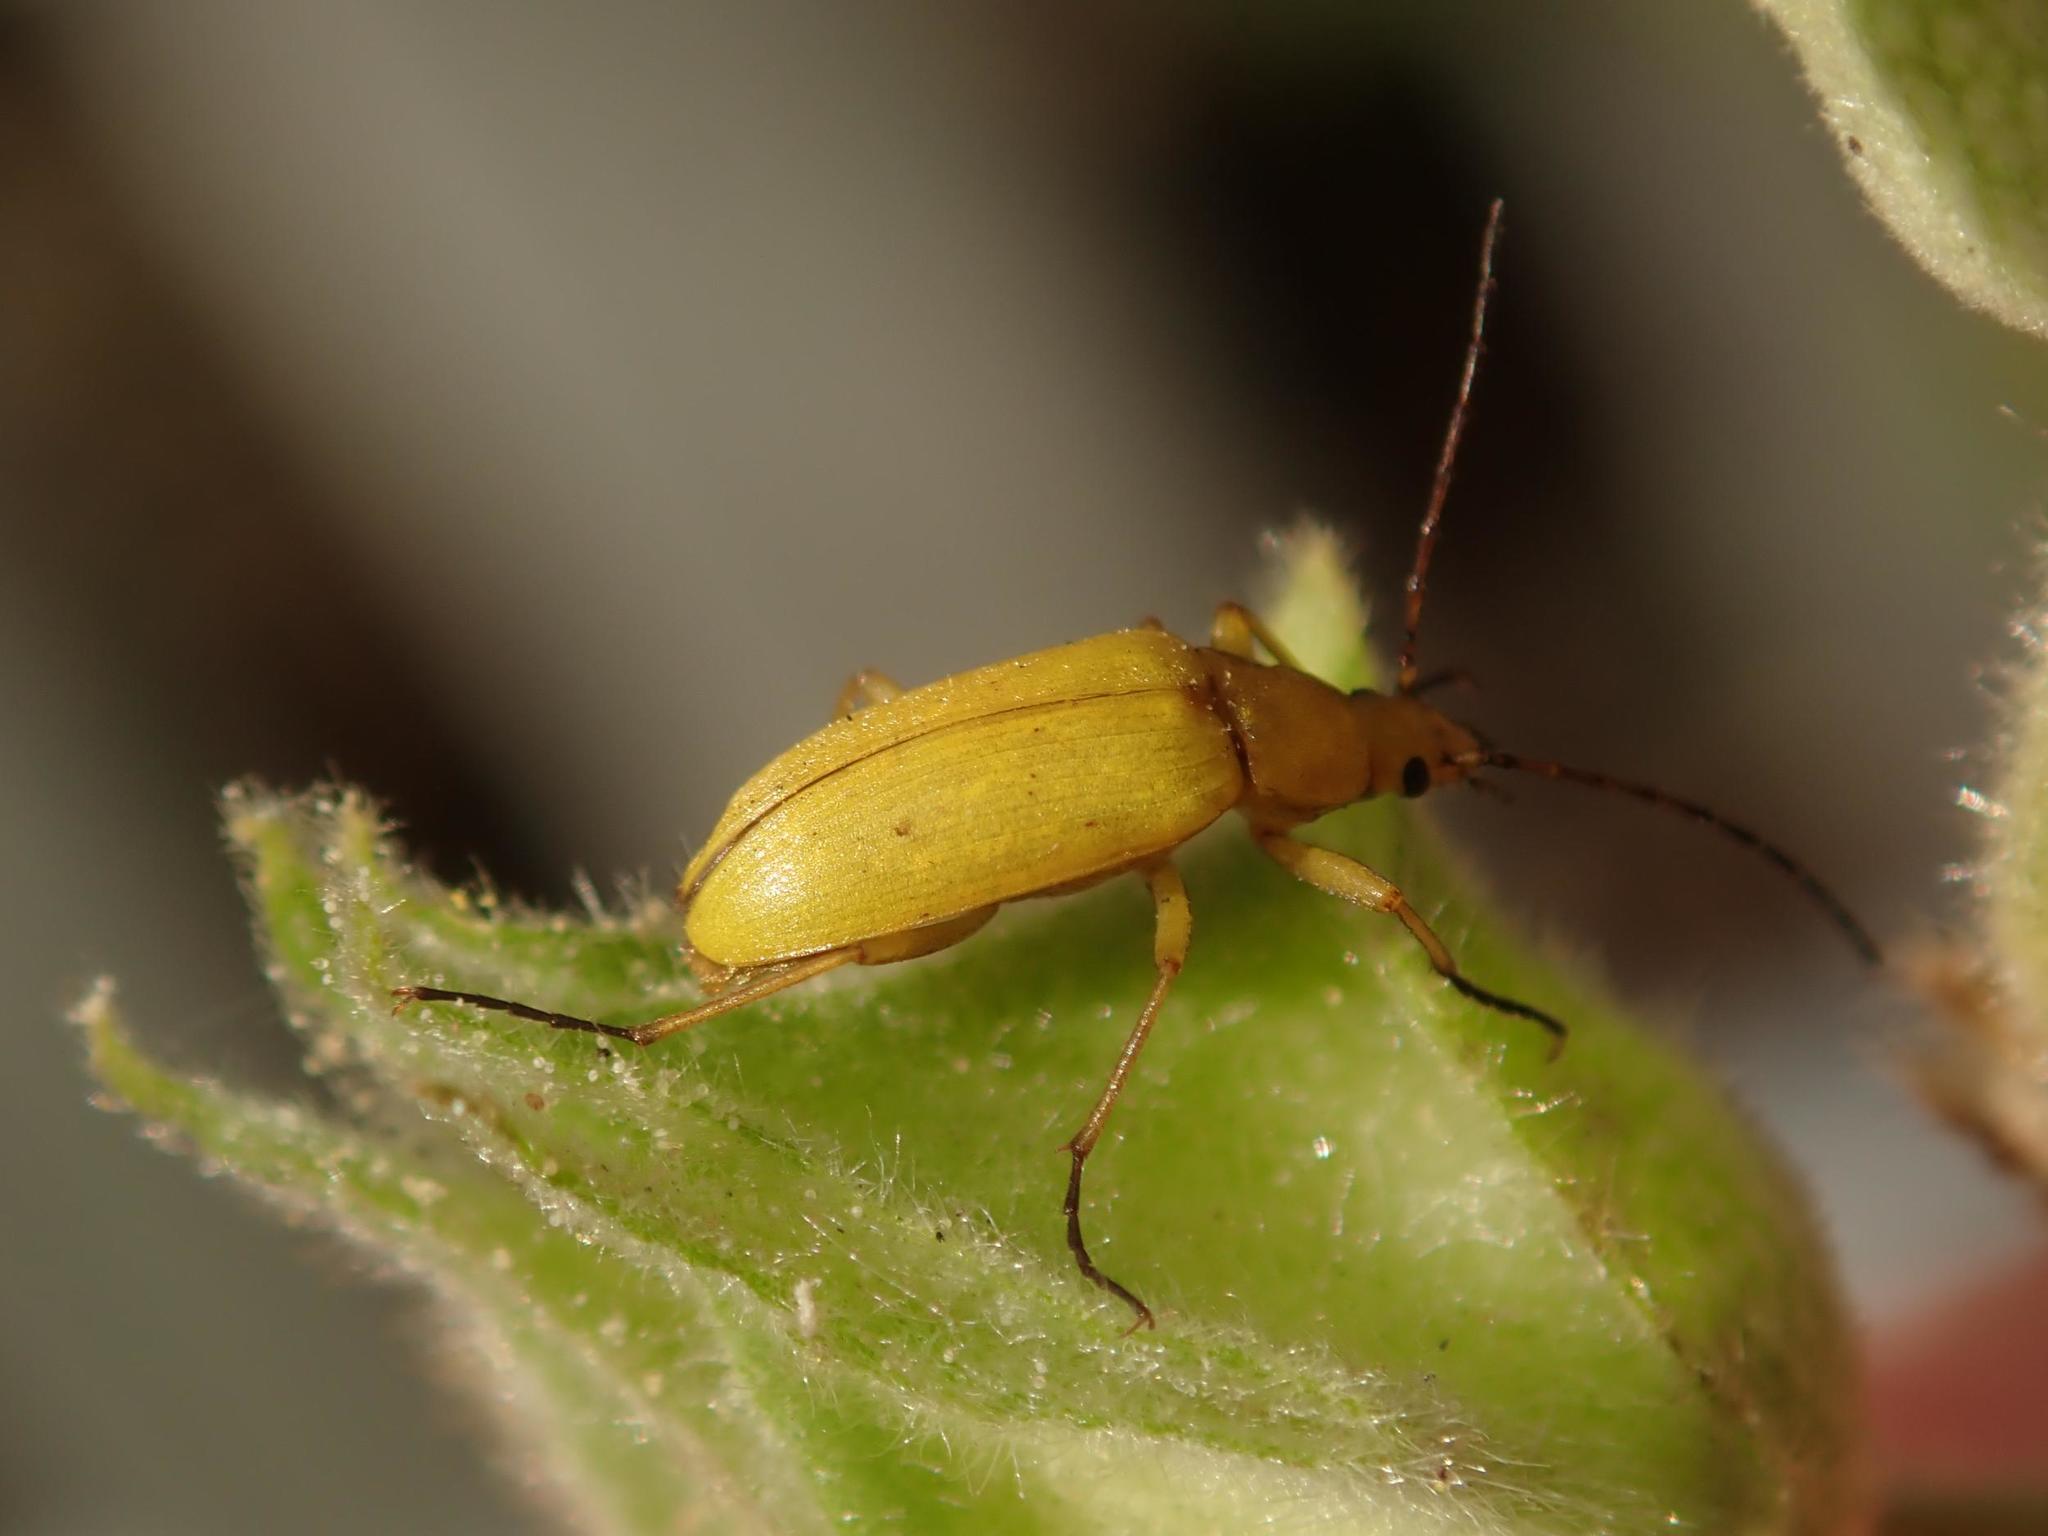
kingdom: Animalia
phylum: Arthropoda
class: Insecta
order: Coleoptera
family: Tenebrionidae
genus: Cteniopus
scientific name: Cteniopus sulphureus
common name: Sulphur beetle
